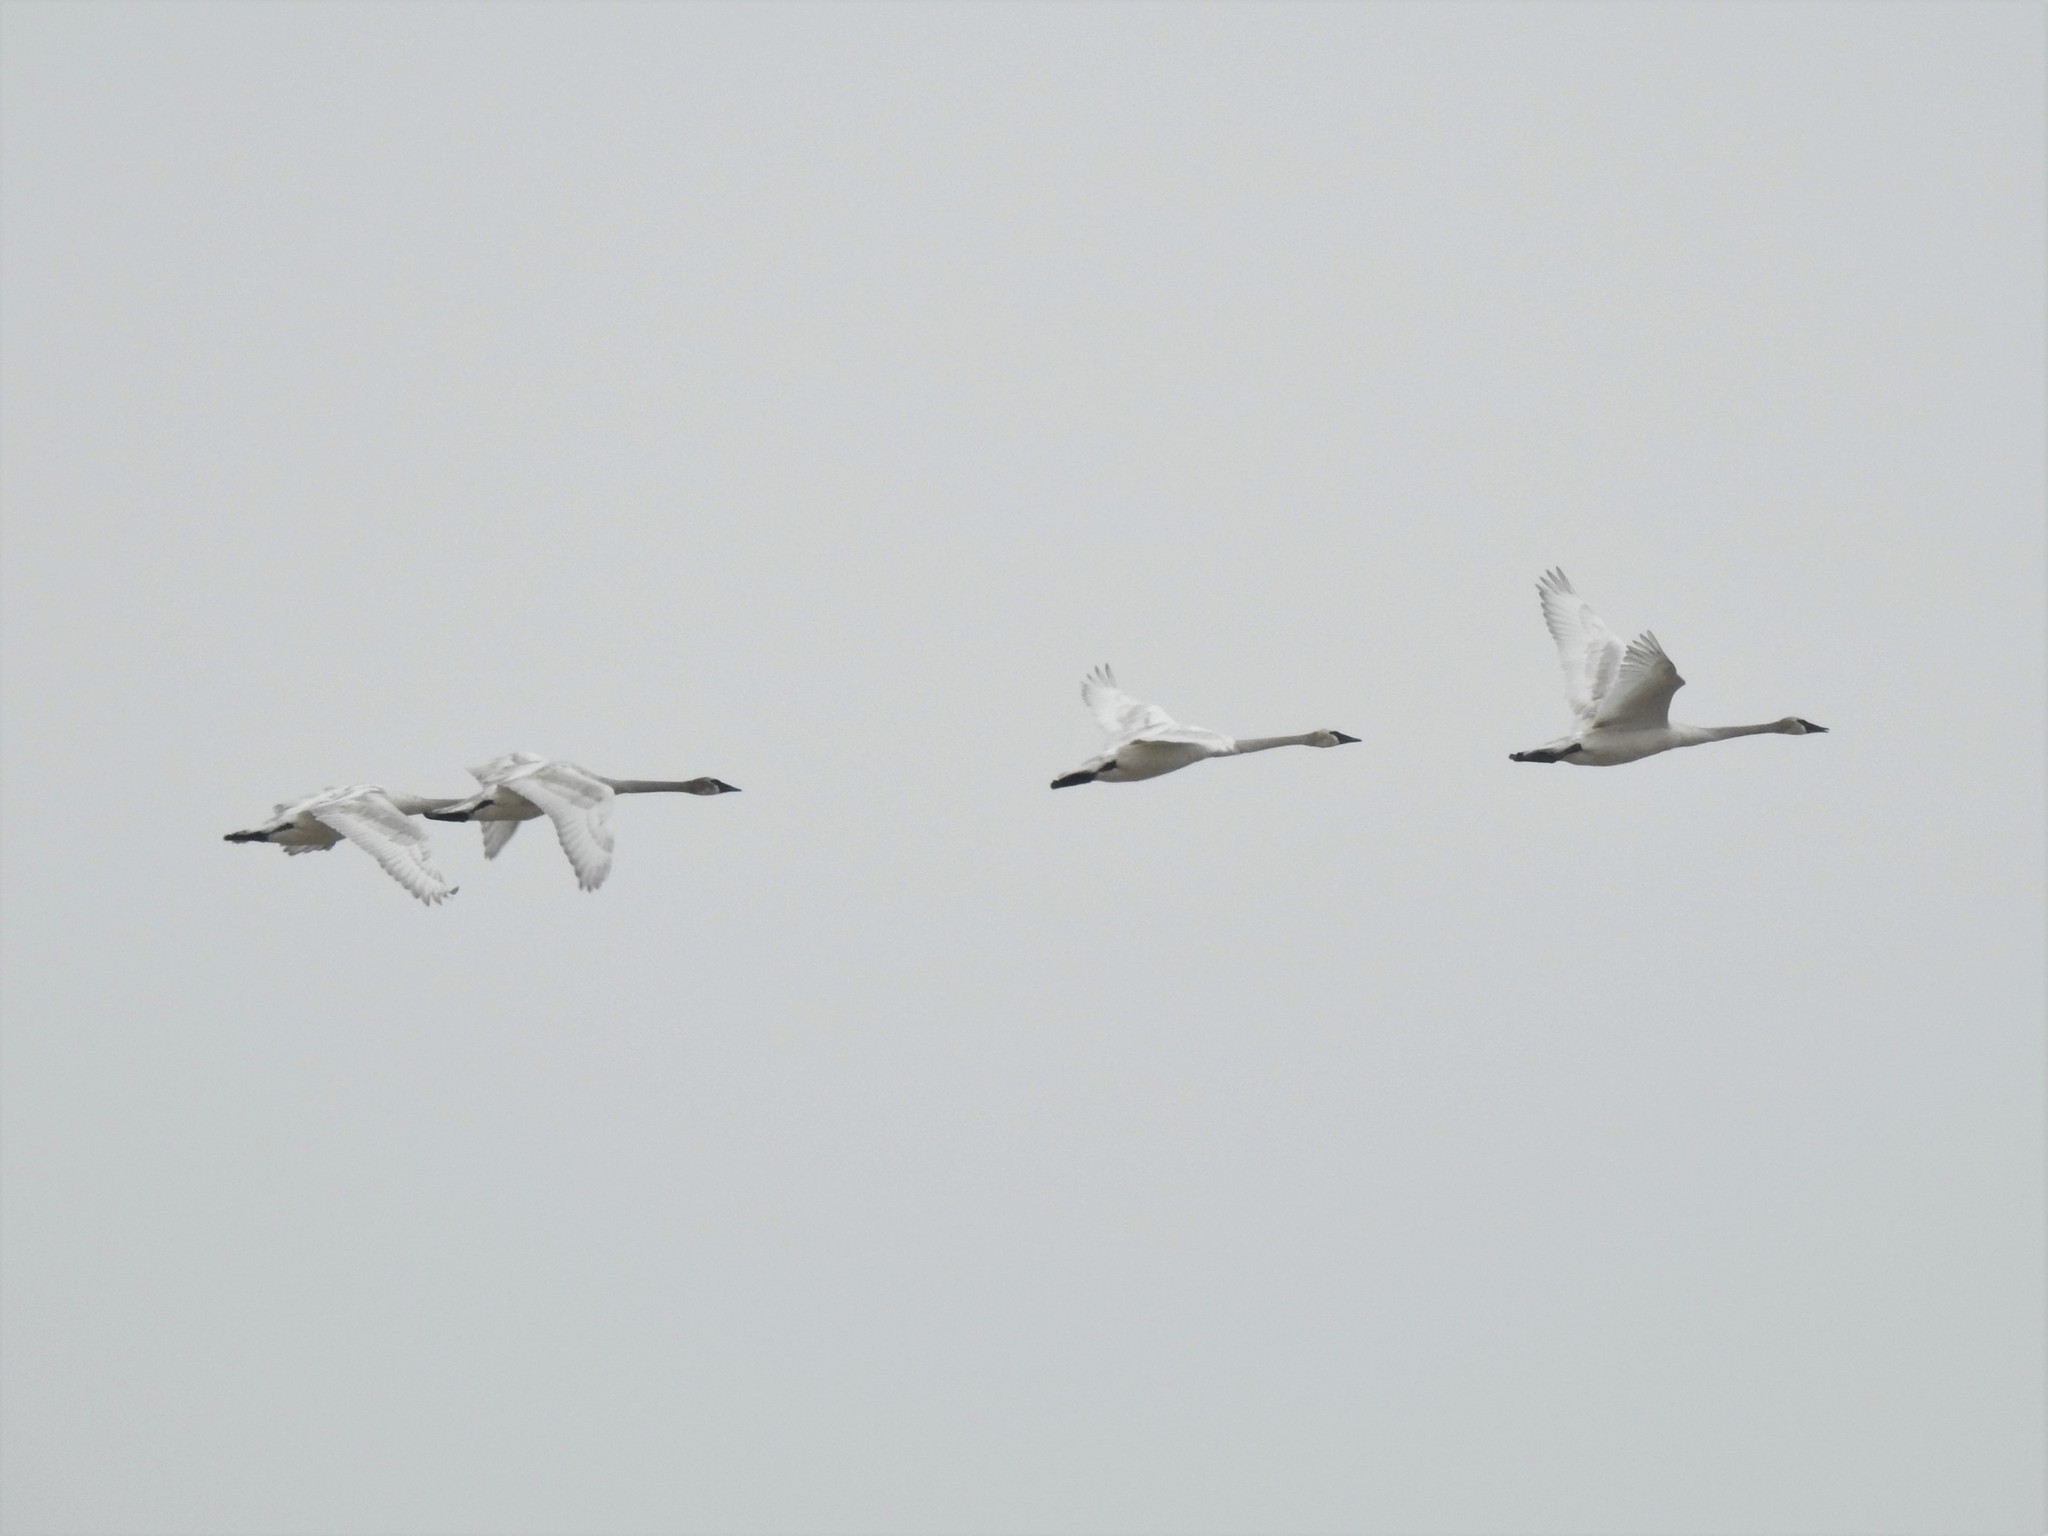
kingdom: Animalia
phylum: Chordata
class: Aves
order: Anseriformes
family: Anatidae
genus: Cygnus
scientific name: Cygnus buccinator
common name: Trumpeter swan
